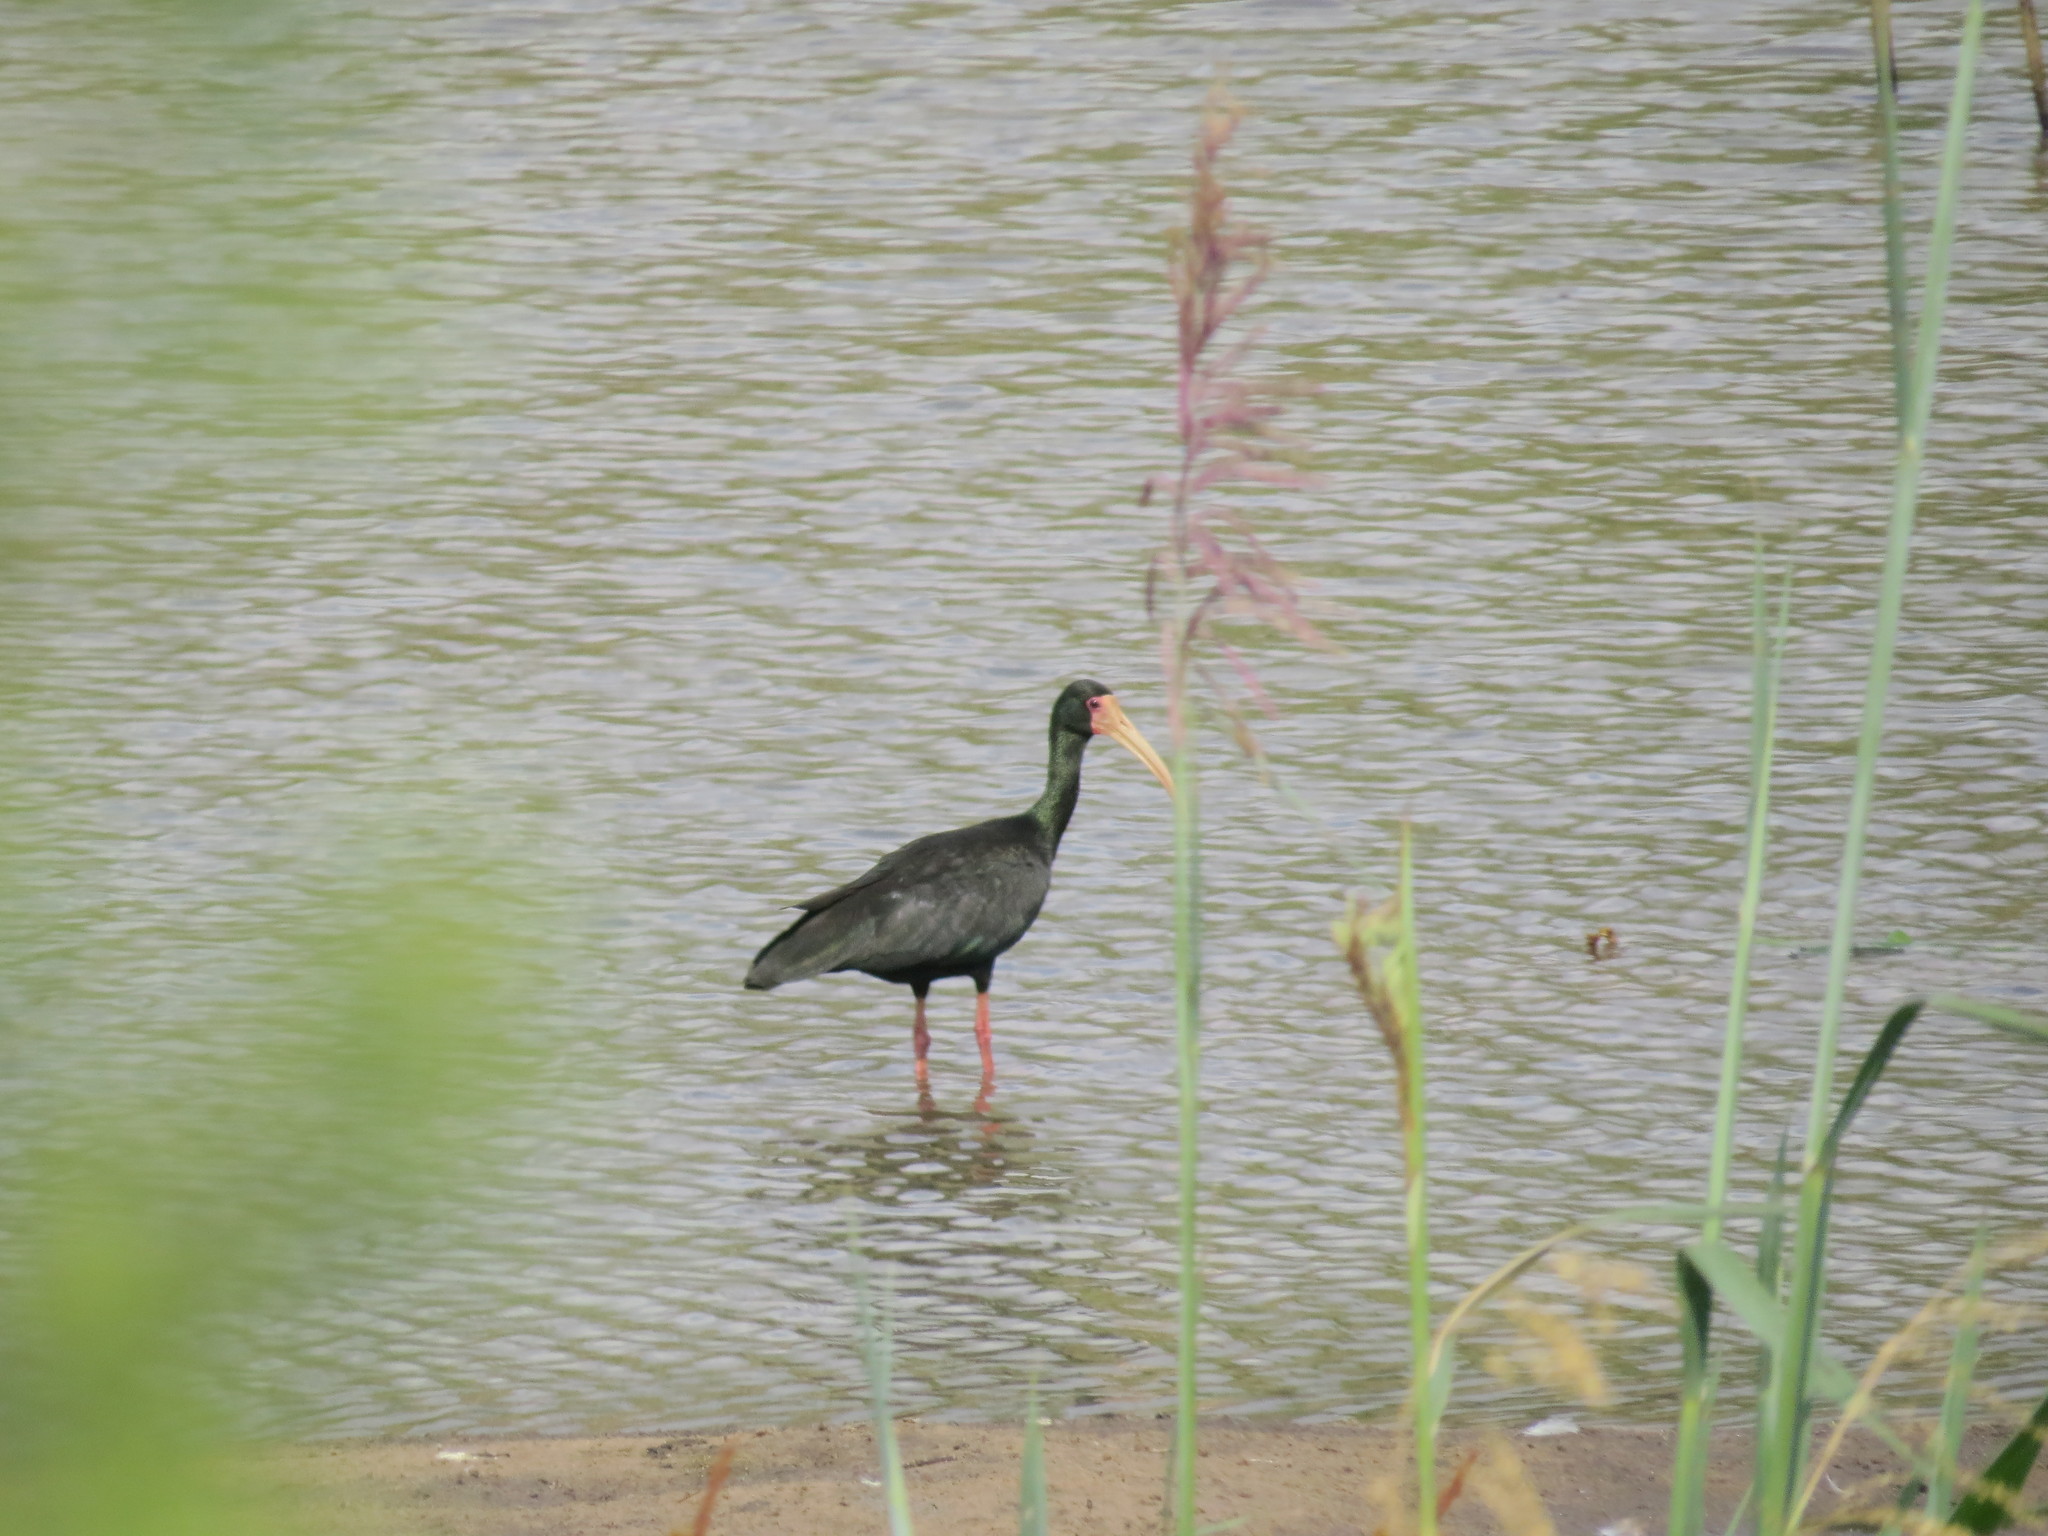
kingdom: Animalia
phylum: Chordata
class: Aves
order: Pelecaniformes
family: Threskiornithidae
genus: Phimosus
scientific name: Phimosus infuscatus
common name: Bare-faced ibis
